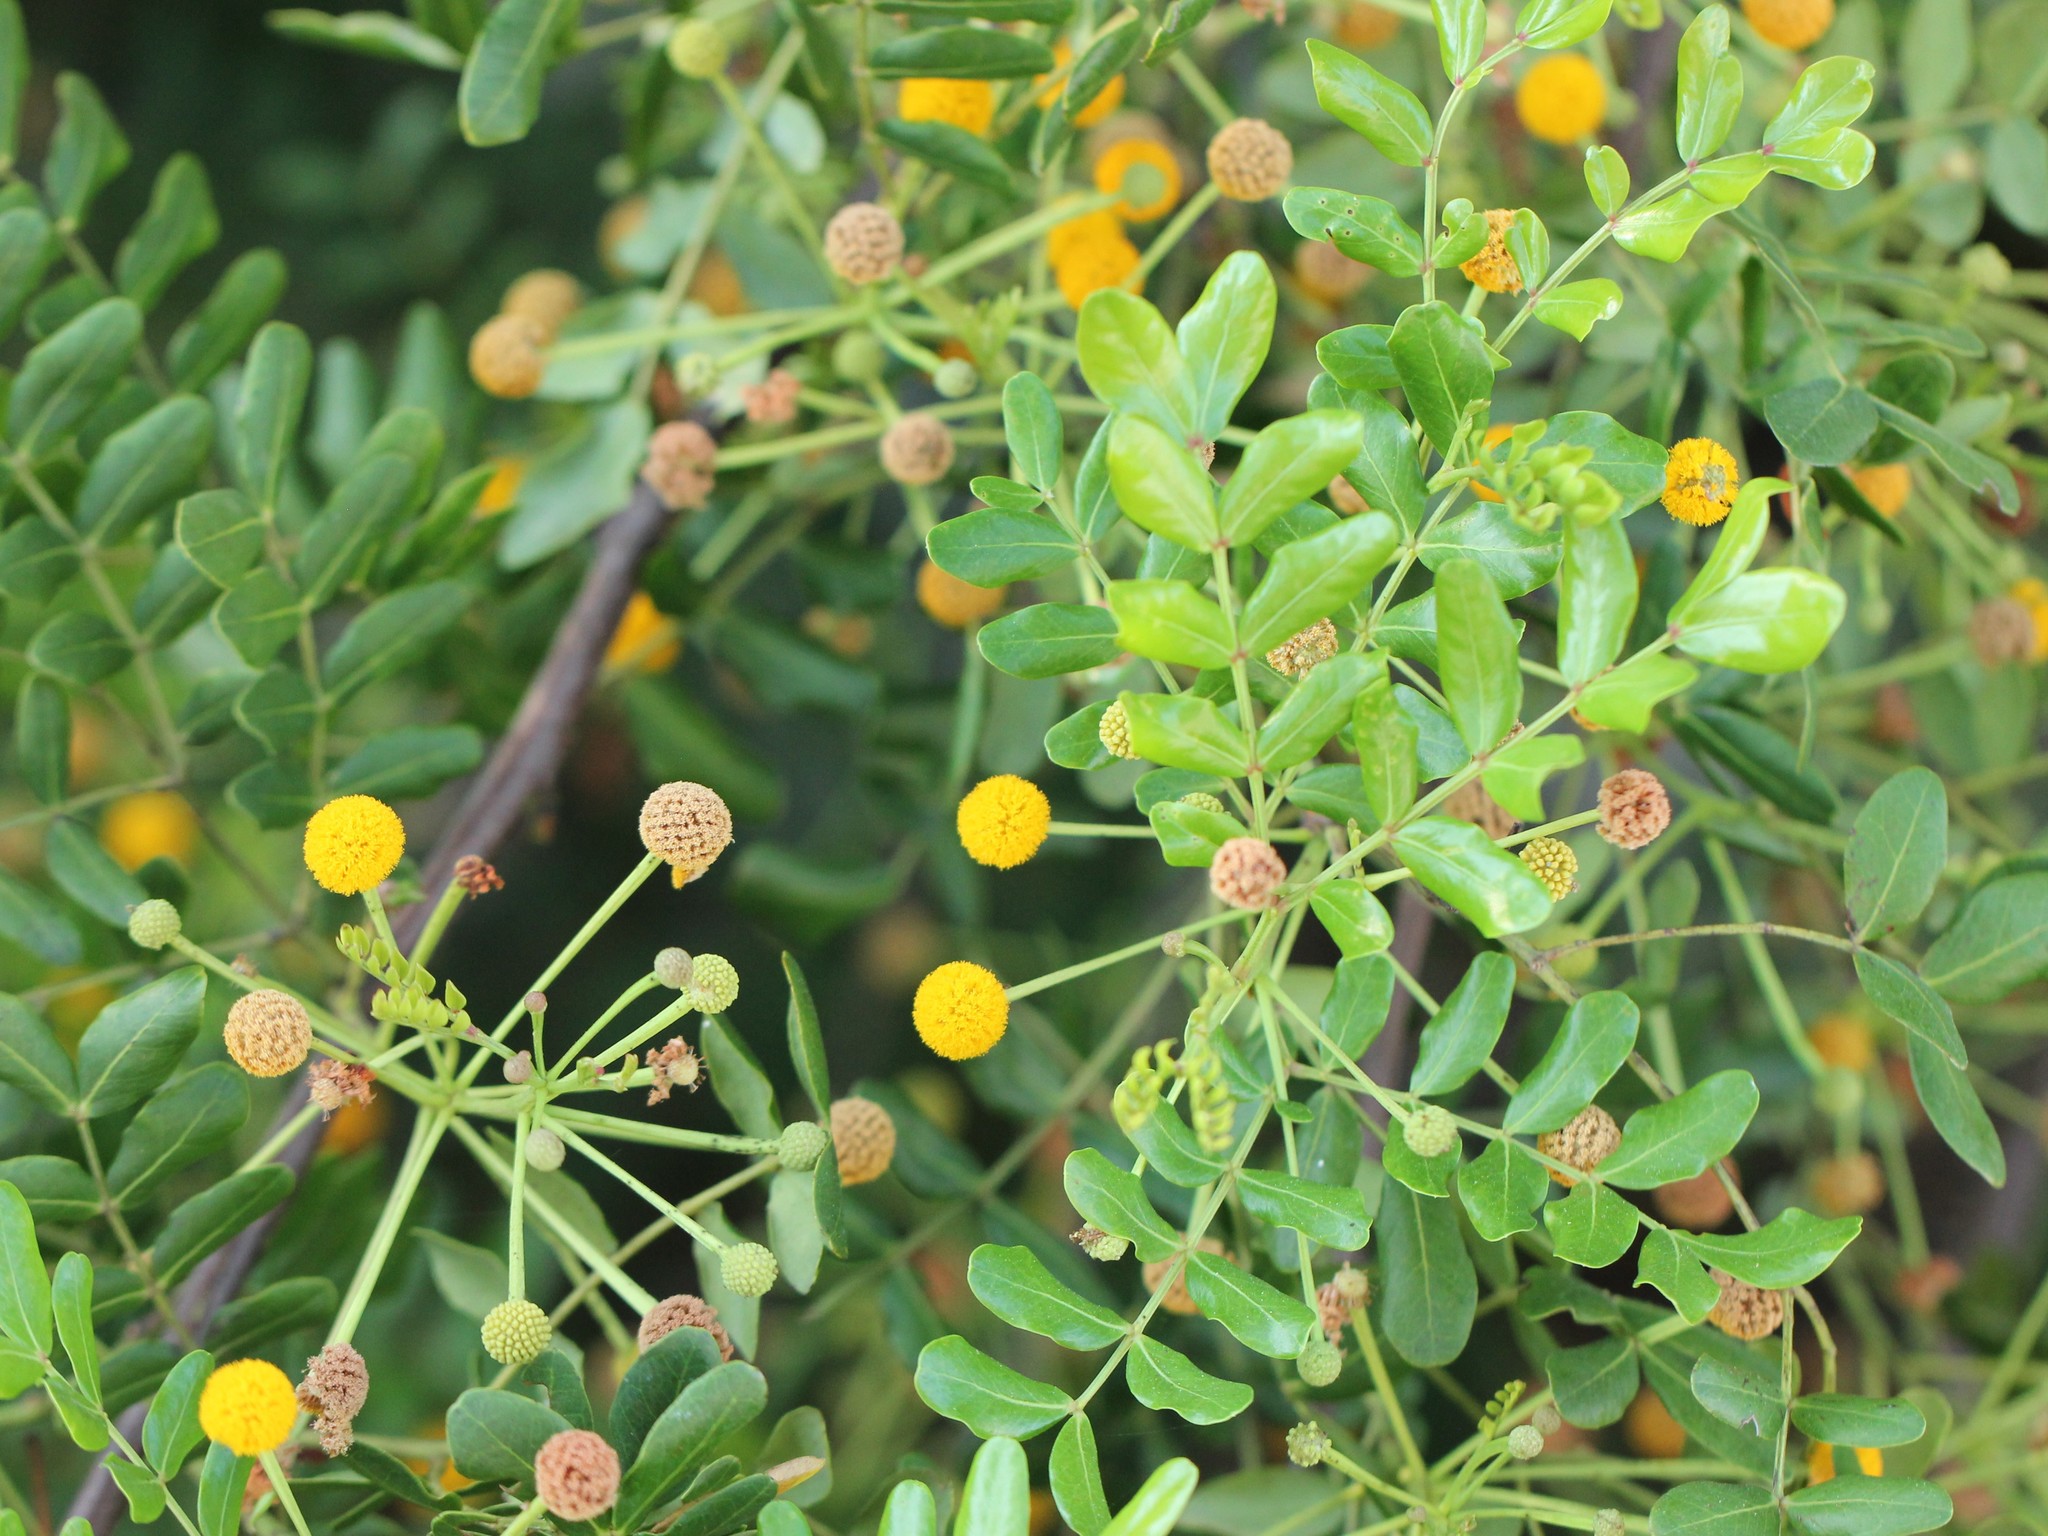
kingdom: Plantae
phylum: Tracheophyta
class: Magnoliopsida
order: Fabales
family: Fabaceae
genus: Vachellia
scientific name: Vachellia choriophylla
